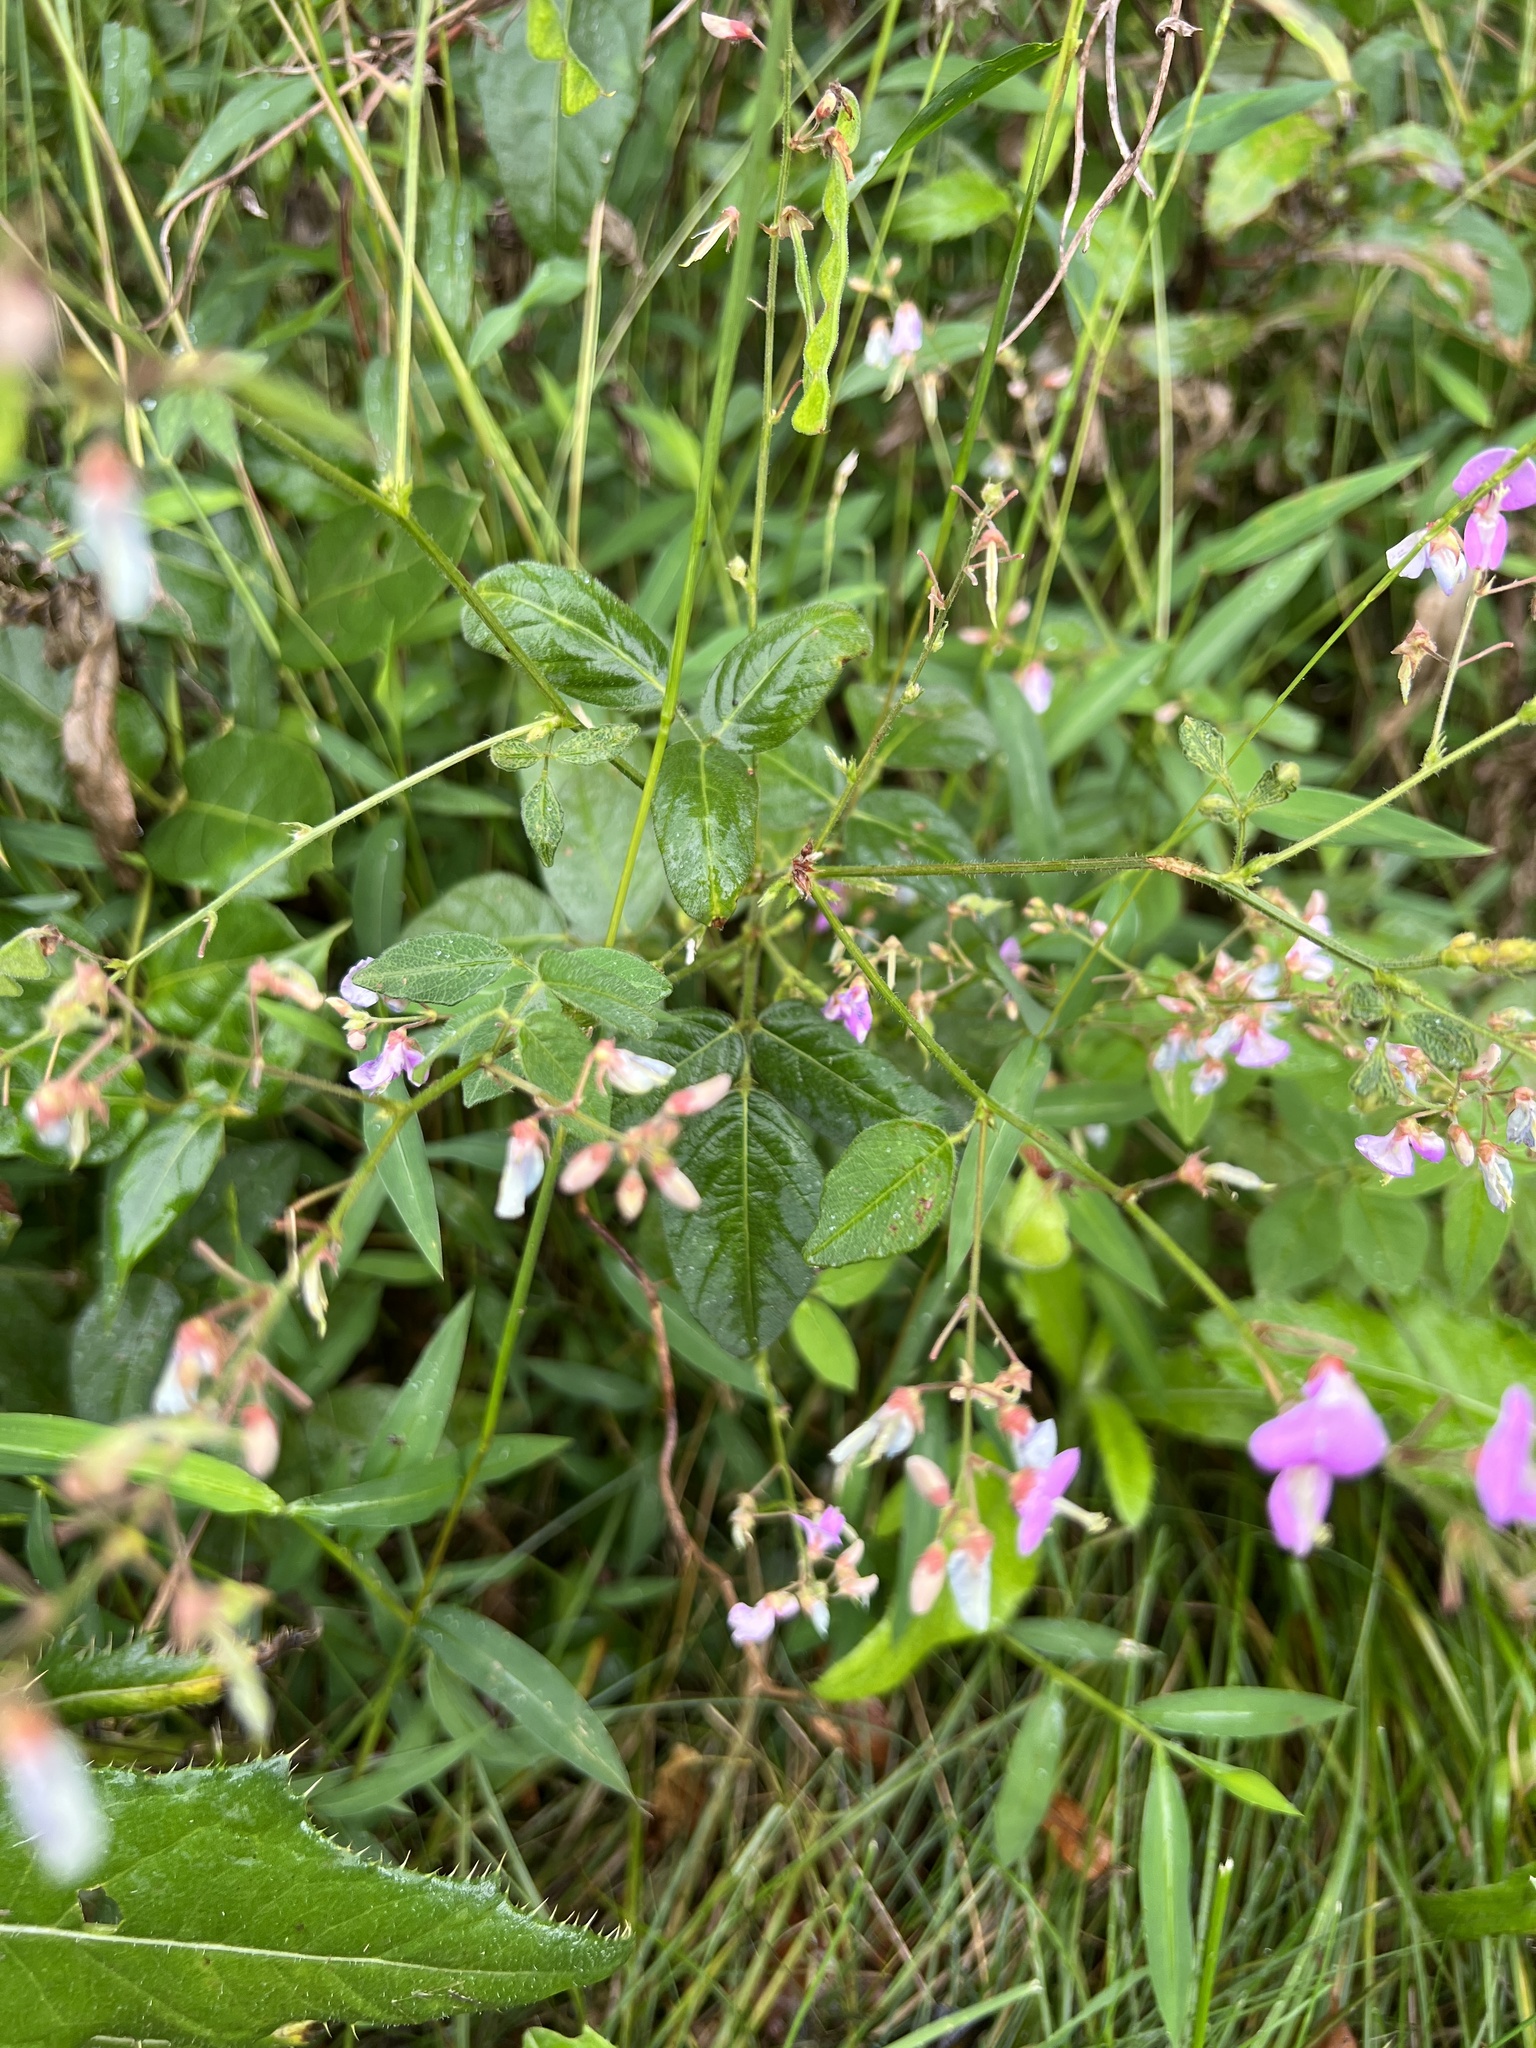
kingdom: Plantae
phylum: Tracheophyta
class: Magnoliopsida
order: Fabales
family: Fabaceae
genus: Desmodium
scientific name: Desmodium glabellum
